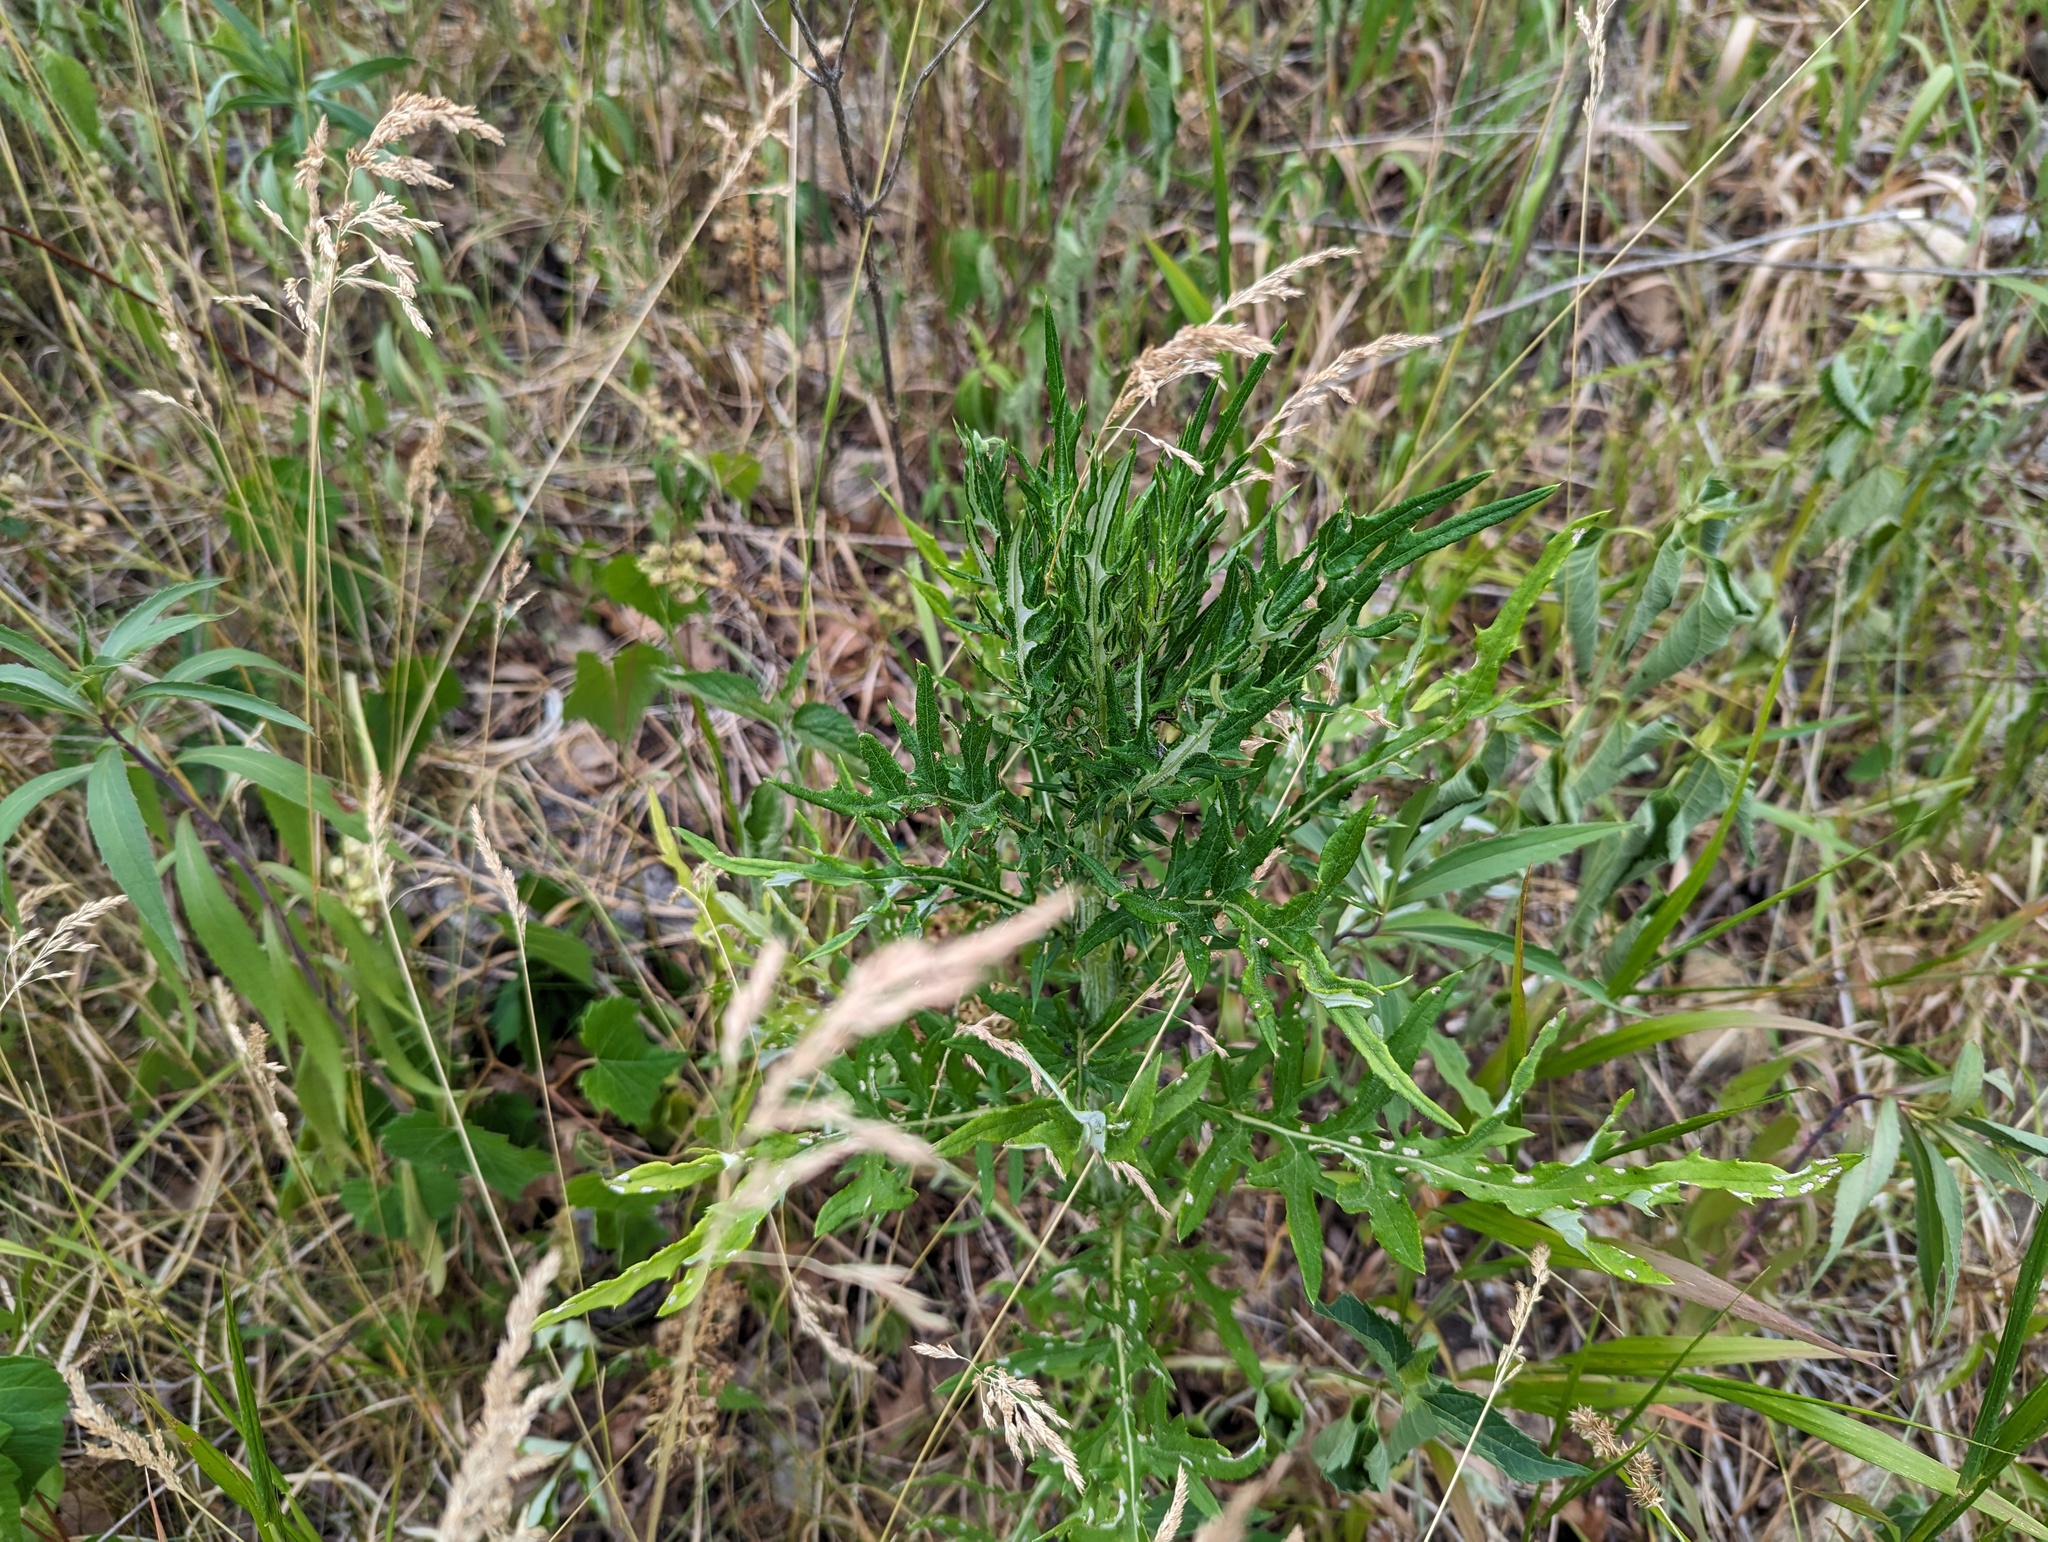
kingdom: Plantae
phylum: Tracheophyta
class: Magnoliopsida
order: Asterales
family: Asteraceae
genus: Cirsium
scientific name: Cirsium discolor
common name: Field thistle
